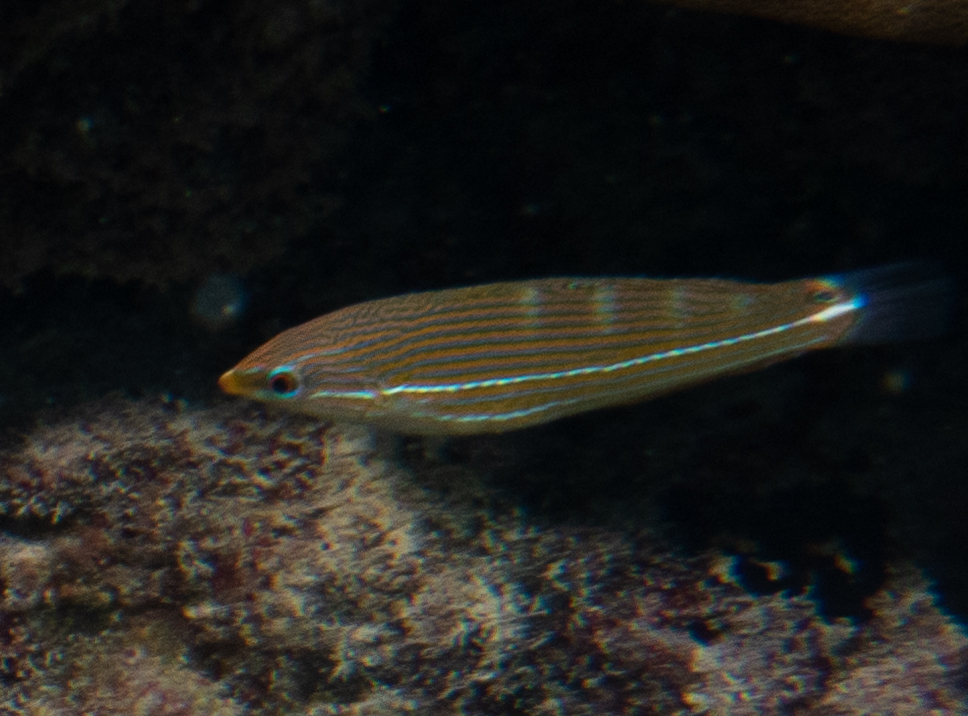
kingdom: Animalia
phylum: Chordata
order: Perciformes
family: Labridae
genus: Halichoeres
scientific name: Halichoeres melanurus
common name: Hoeven's wrasse
